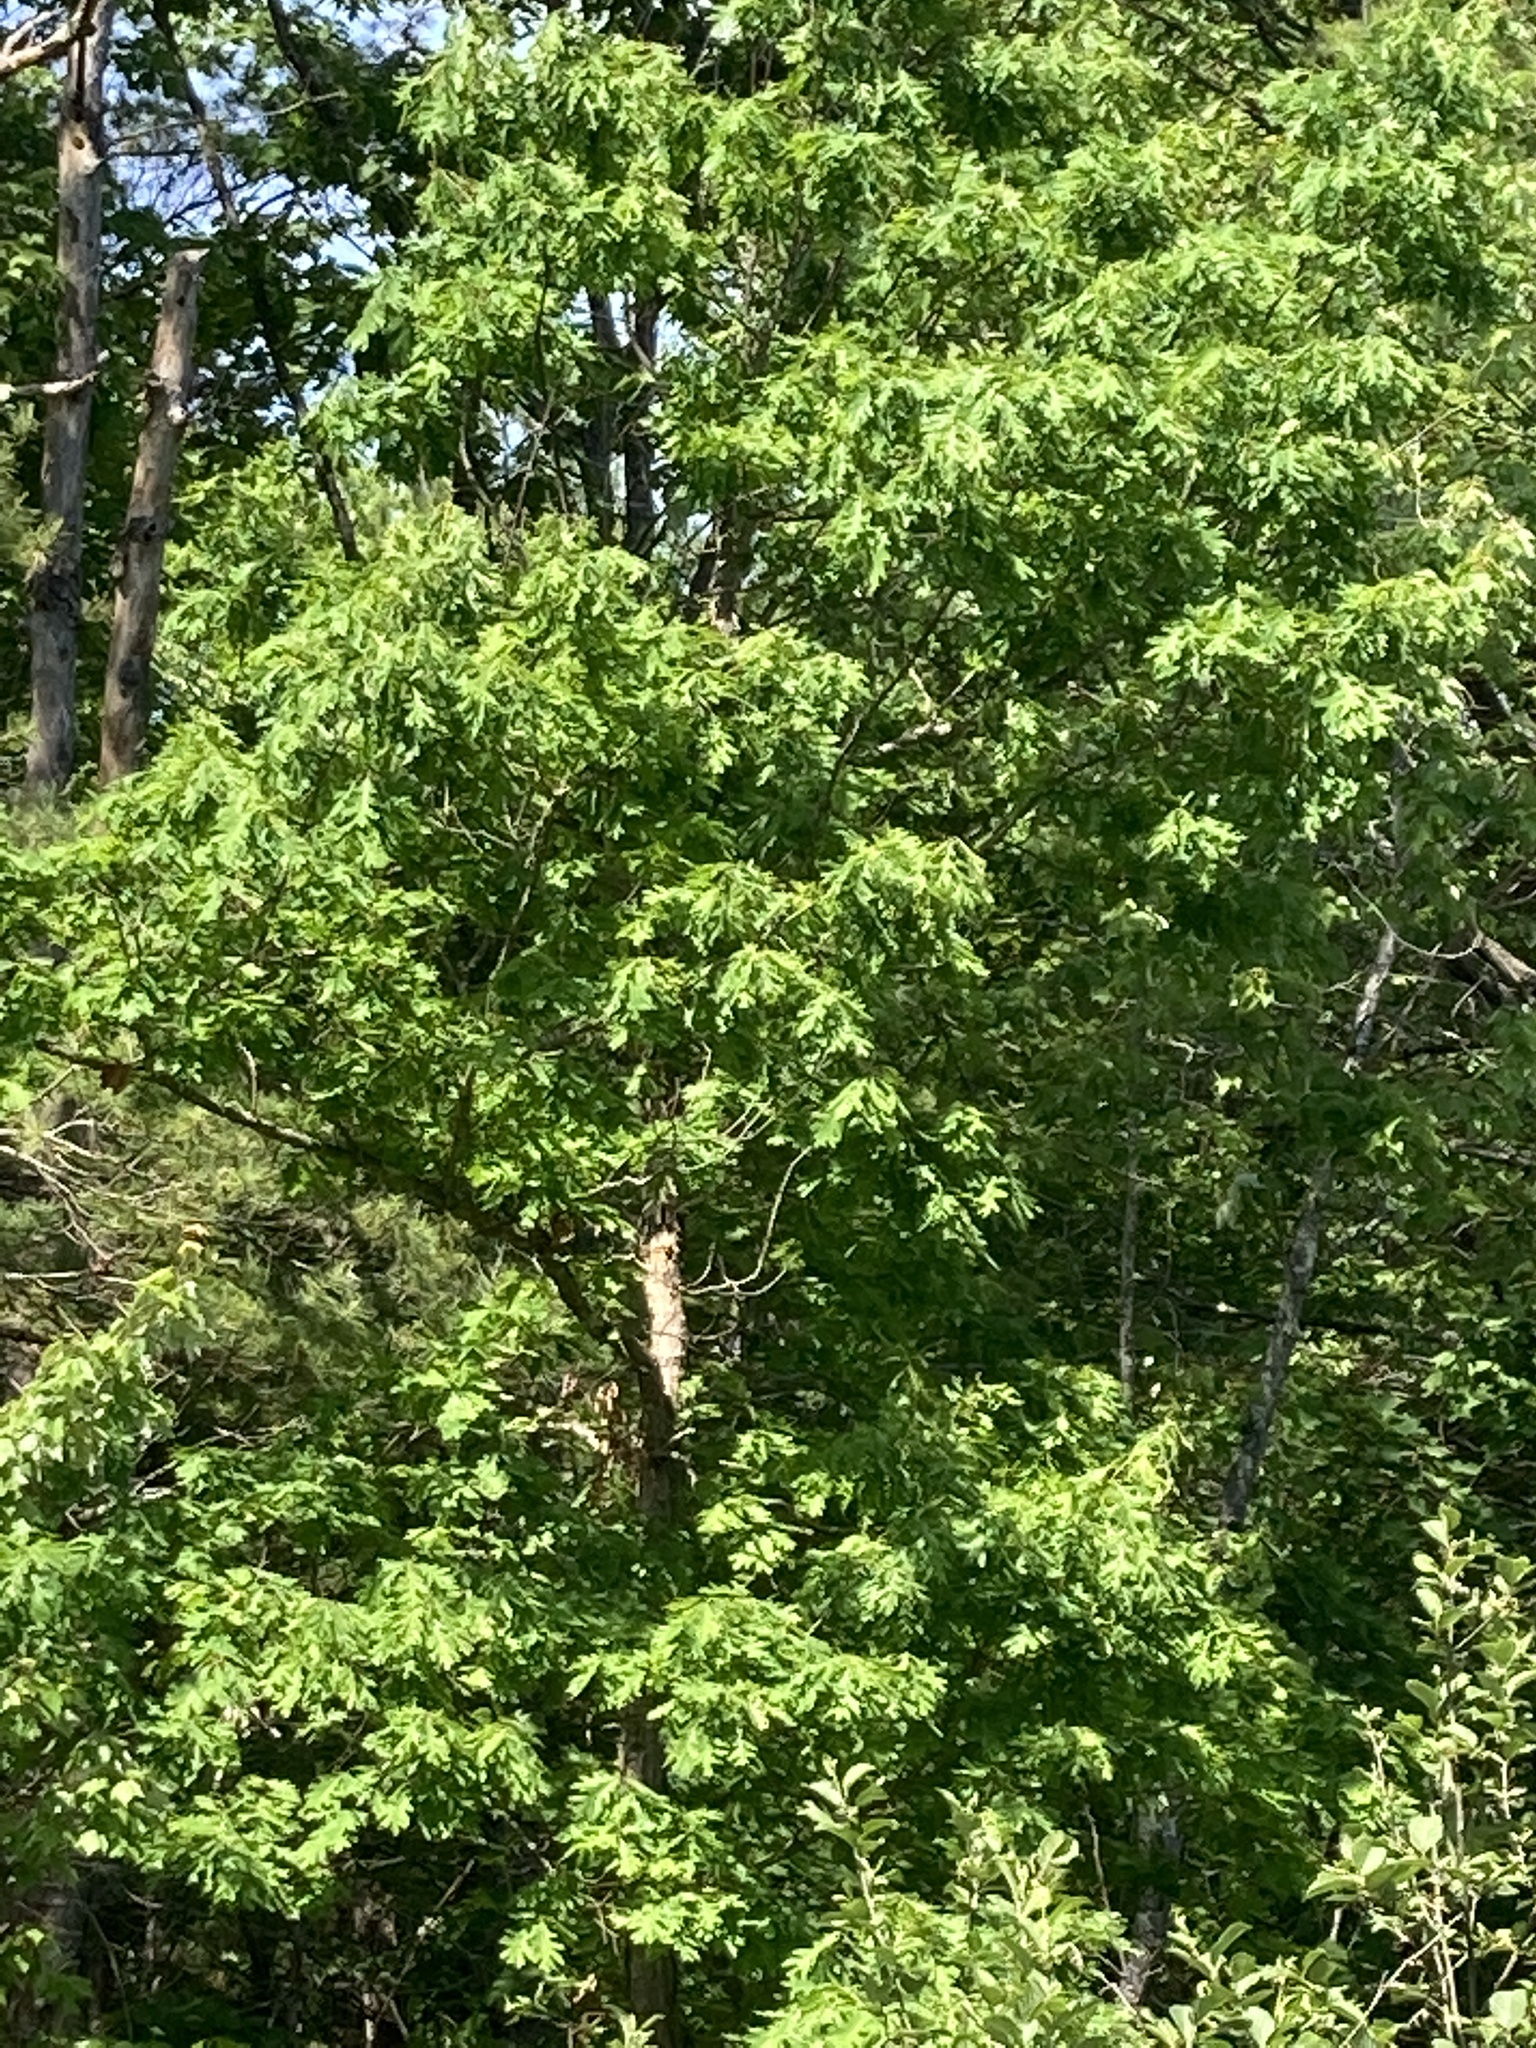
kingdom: Plantae
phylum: Tracheophyta
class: Magnoliopsida
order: Fagales
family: Fagaceae
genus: Quercus
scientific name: Quercus alba
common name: White oak
